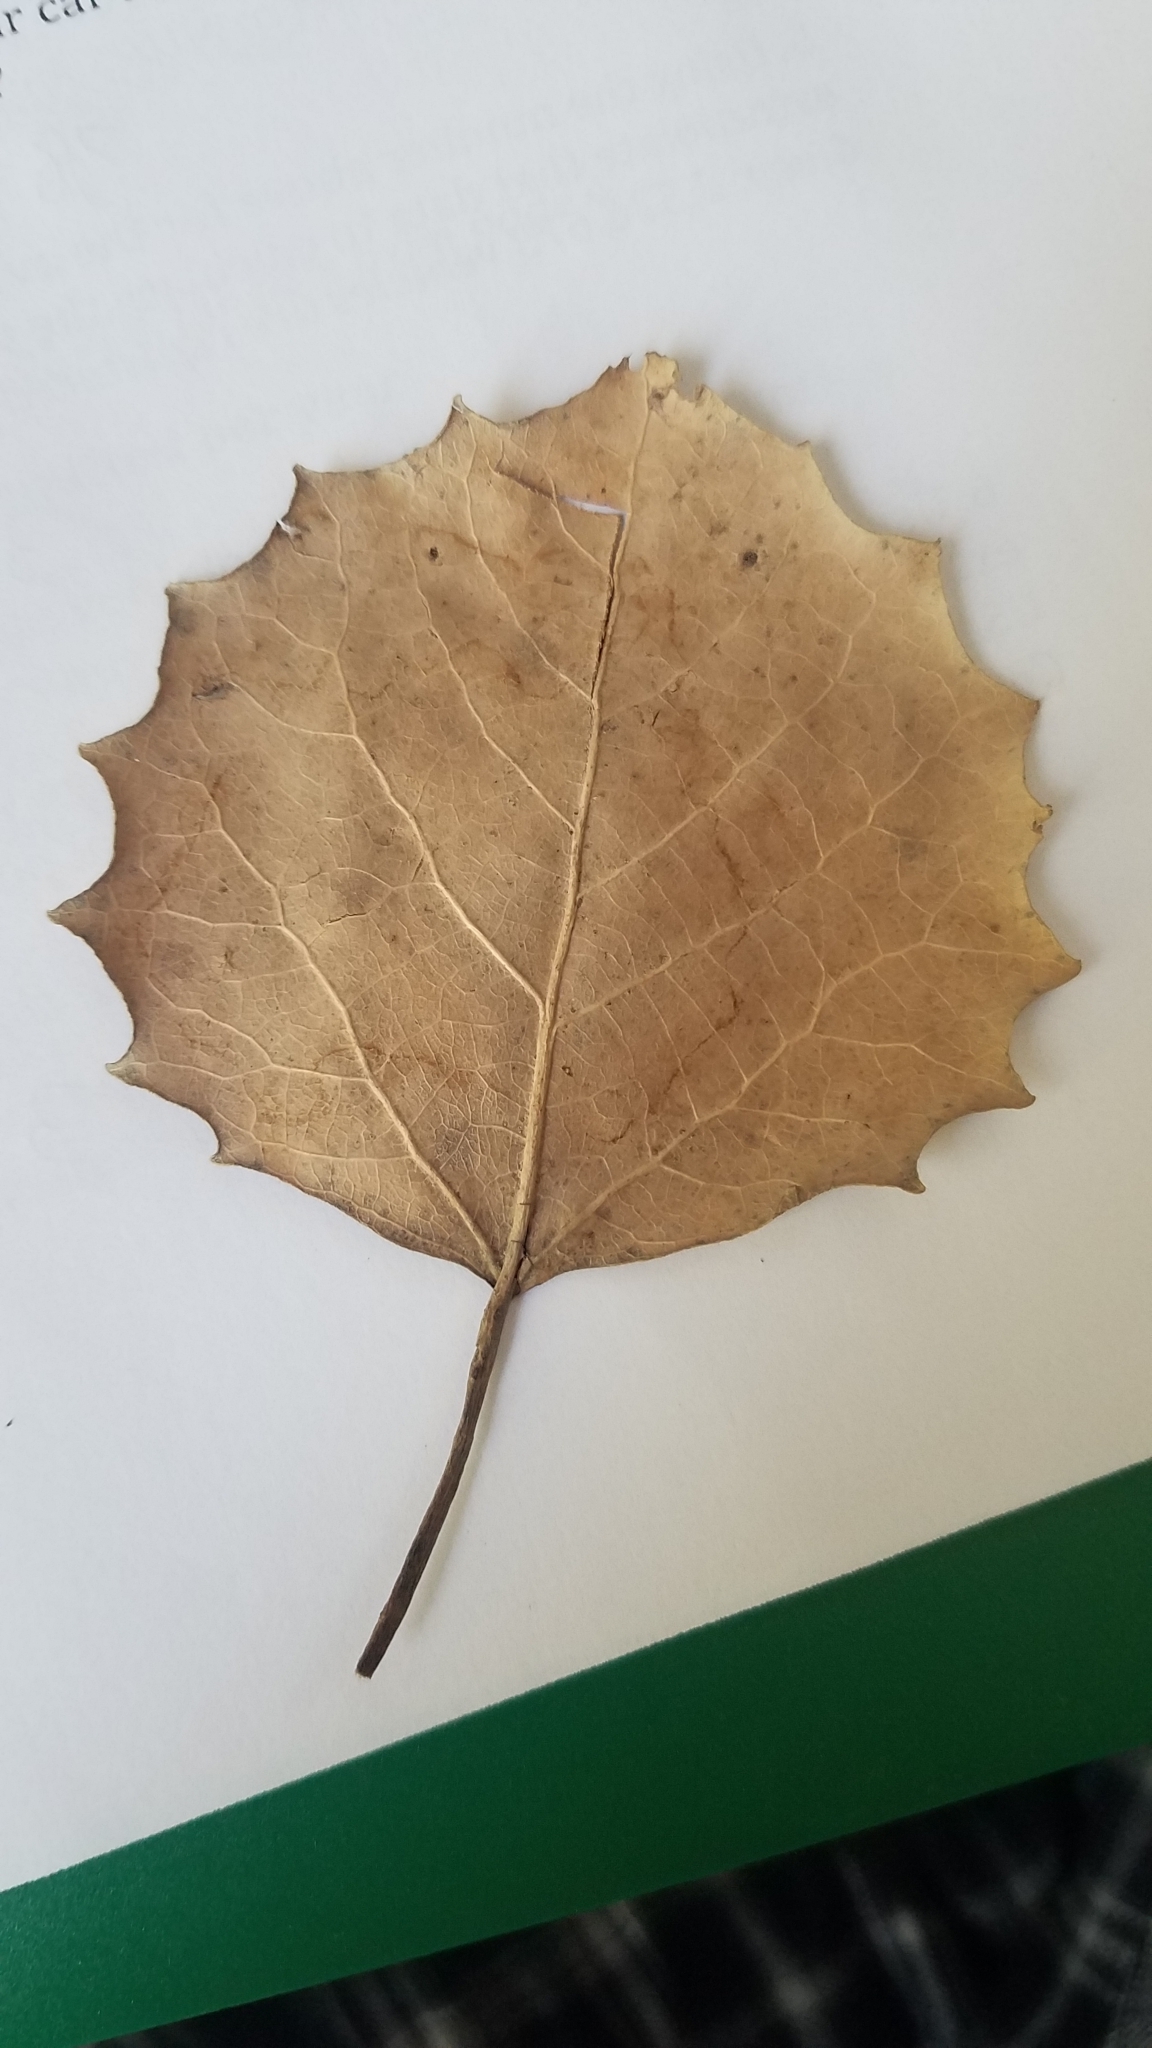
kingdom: Plantae
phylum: Tracheophyta
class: Magnoliopsida
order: Malpighiales
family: Salicaceae
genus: Populus
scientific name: Populus grandidentata
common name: Bigtooth aspen
